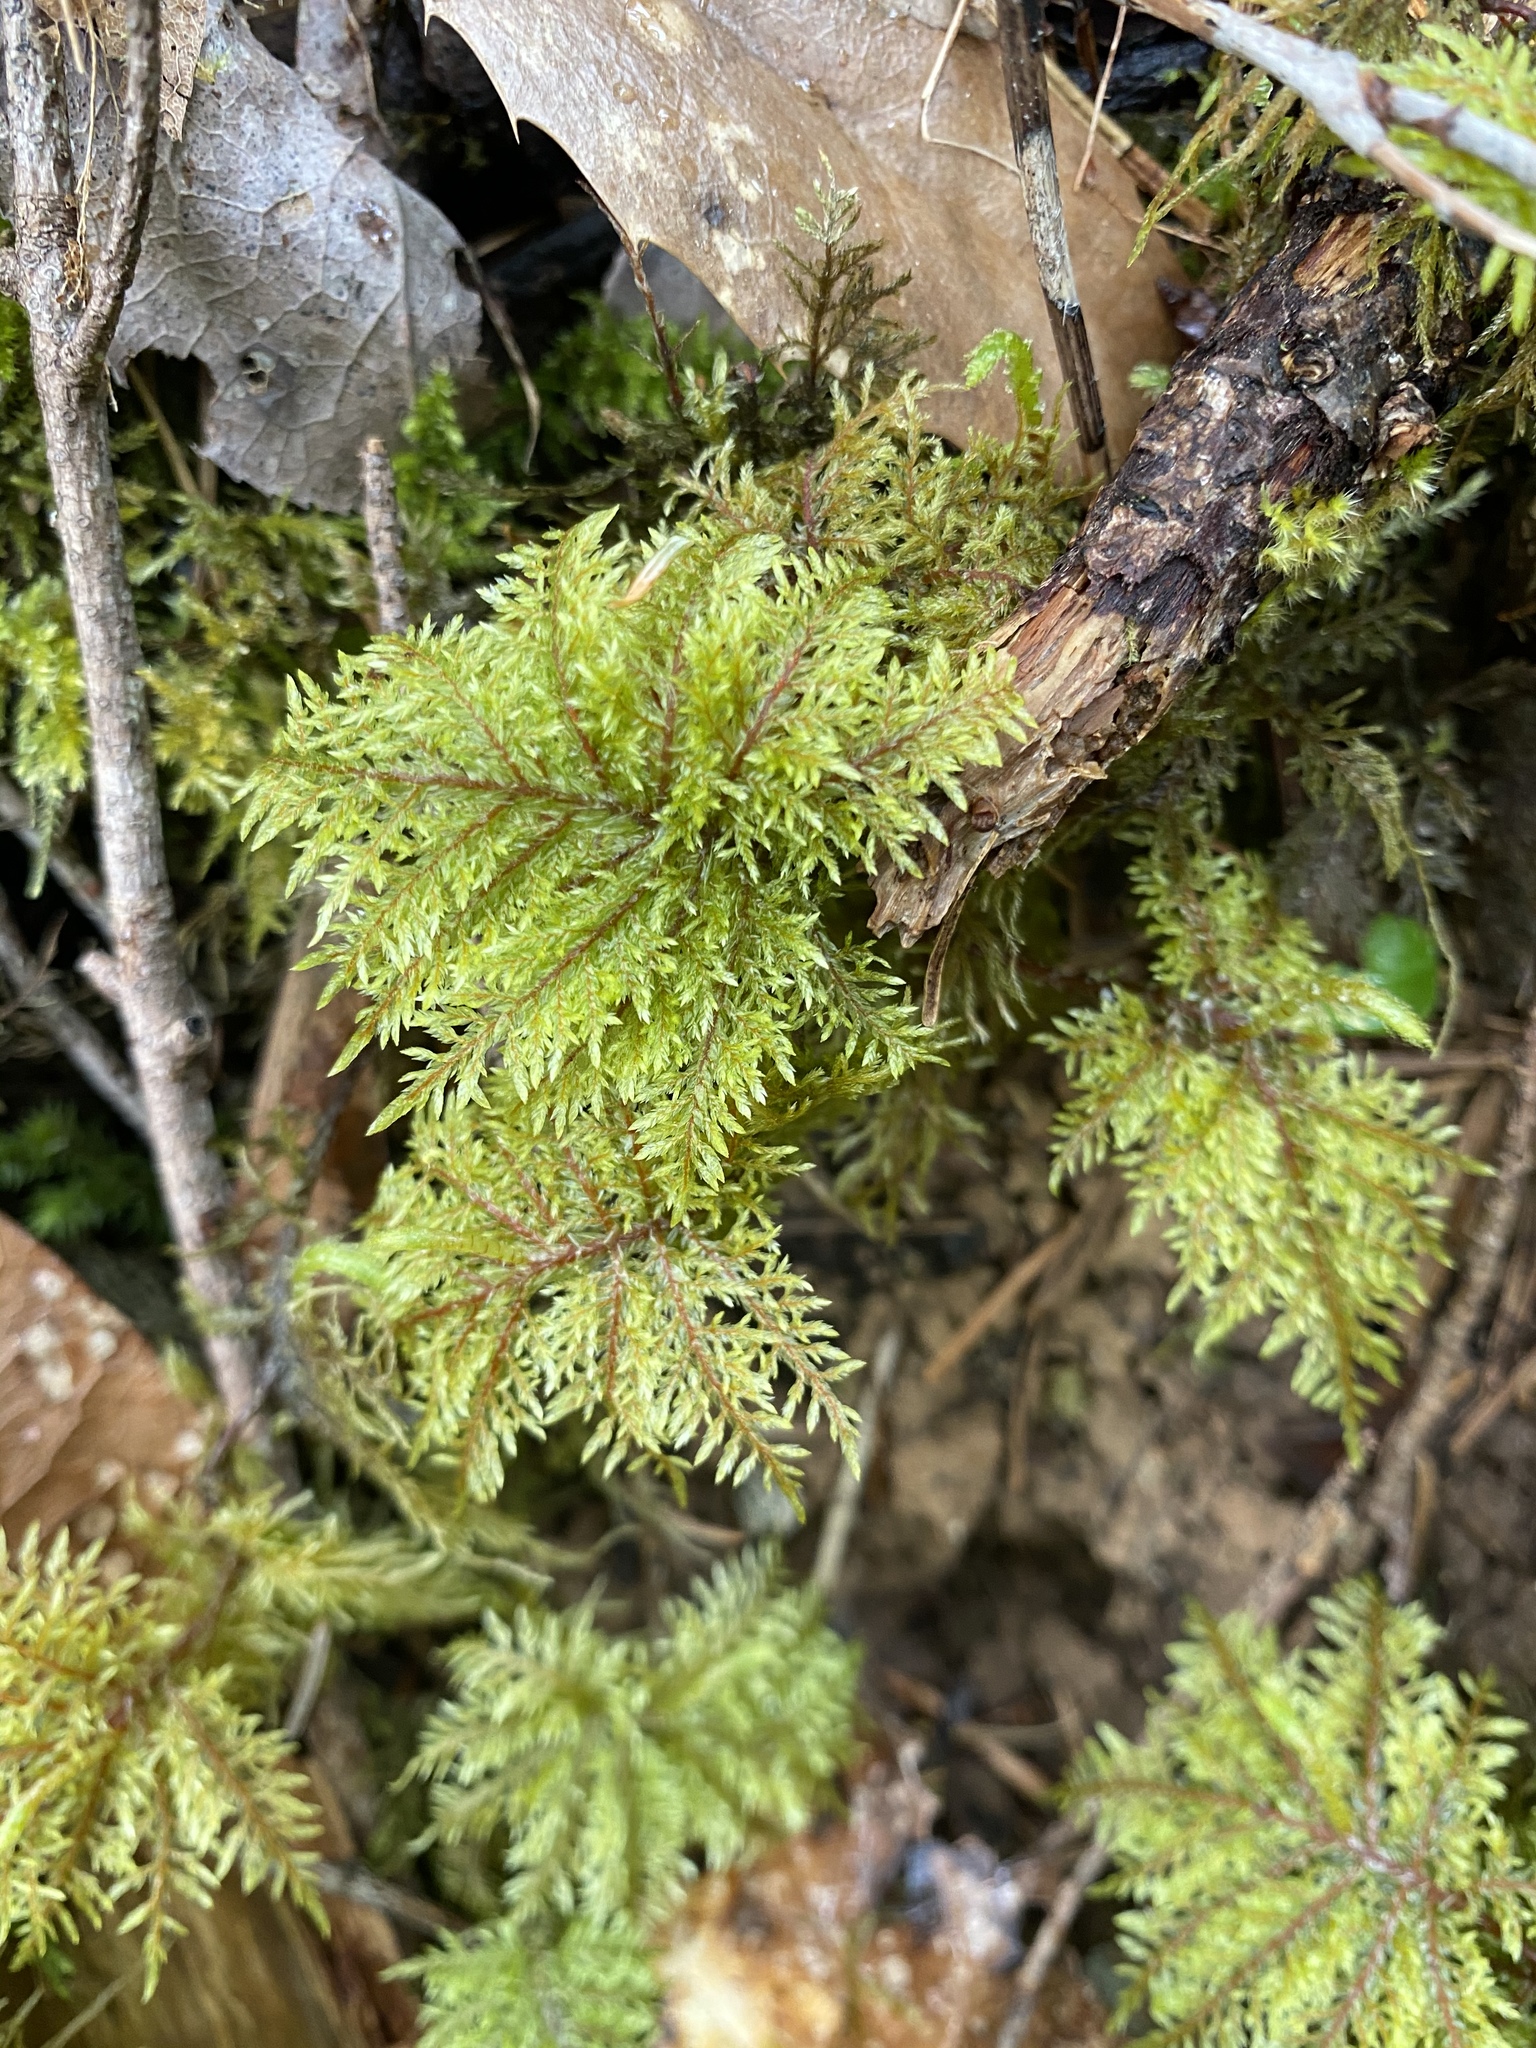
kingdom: Plantae
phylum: Bryophyta
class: Bryopsida
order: Hypnales
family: Hylocomiaceae
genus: Hylocomium
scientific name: Hylocomium splendens
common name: Stairstep moss
